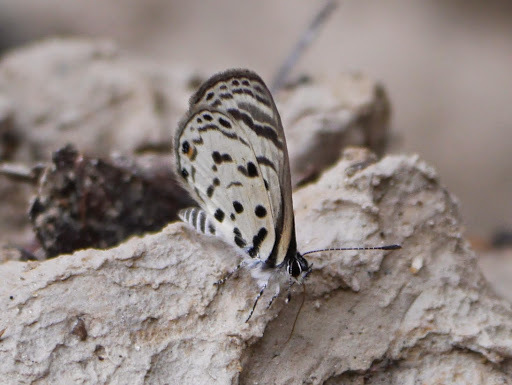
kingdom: Animalia
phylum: Arthropoda
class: Insecta
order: Lepidoptera
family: Lycaenidae
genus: Azanus
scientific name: Azanus mirza
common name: Mirza babul blue
